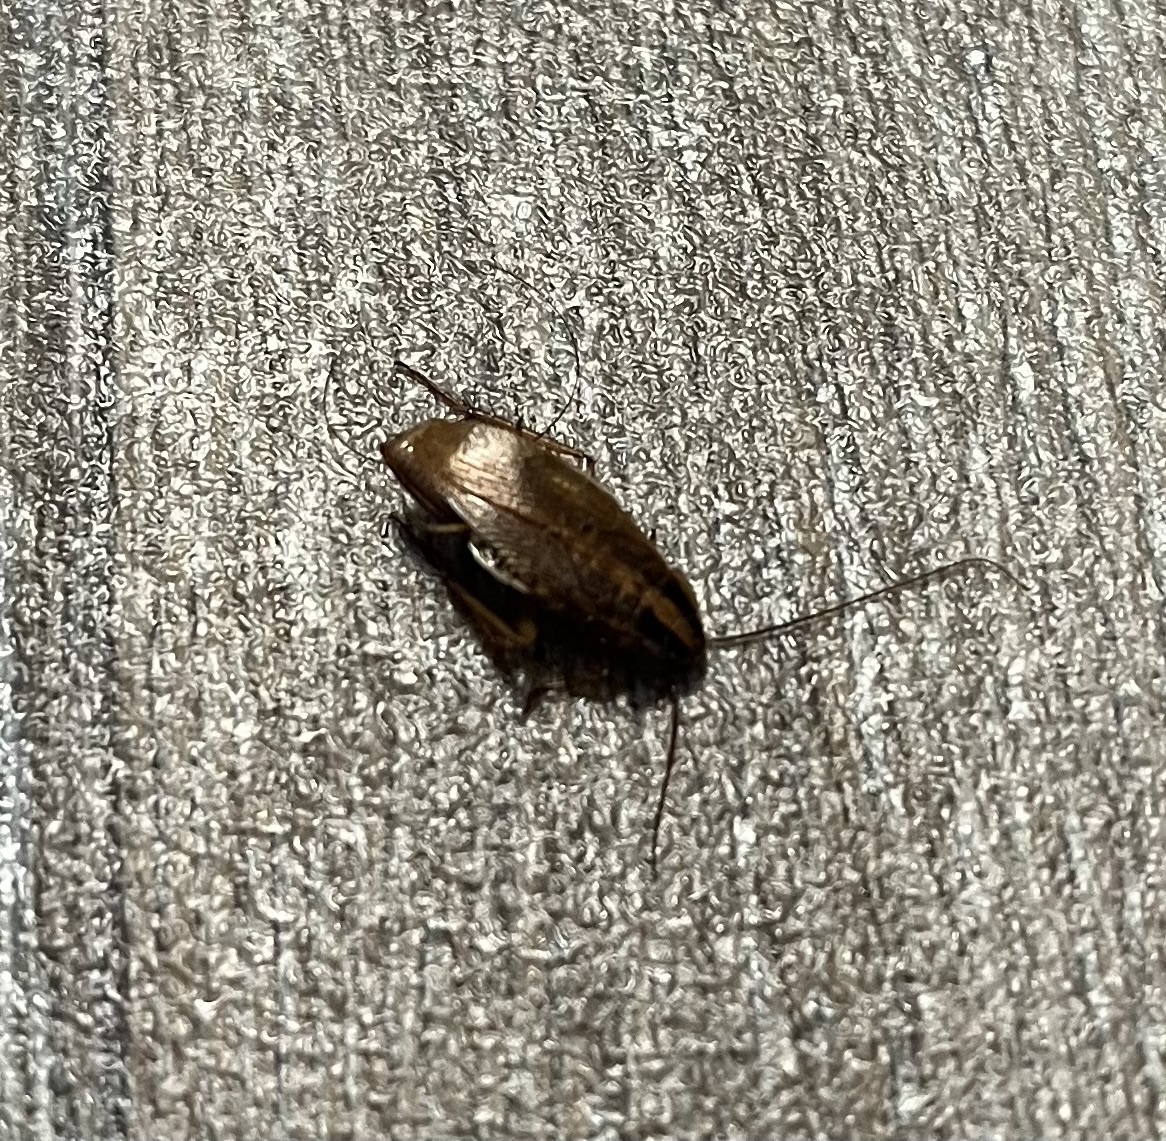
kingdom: Animalia
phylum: Arthropoda
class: Insecta
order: Blattodea
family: Ectobiidae
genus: Blattella
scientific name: Blattella germanica
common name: German cockroach
